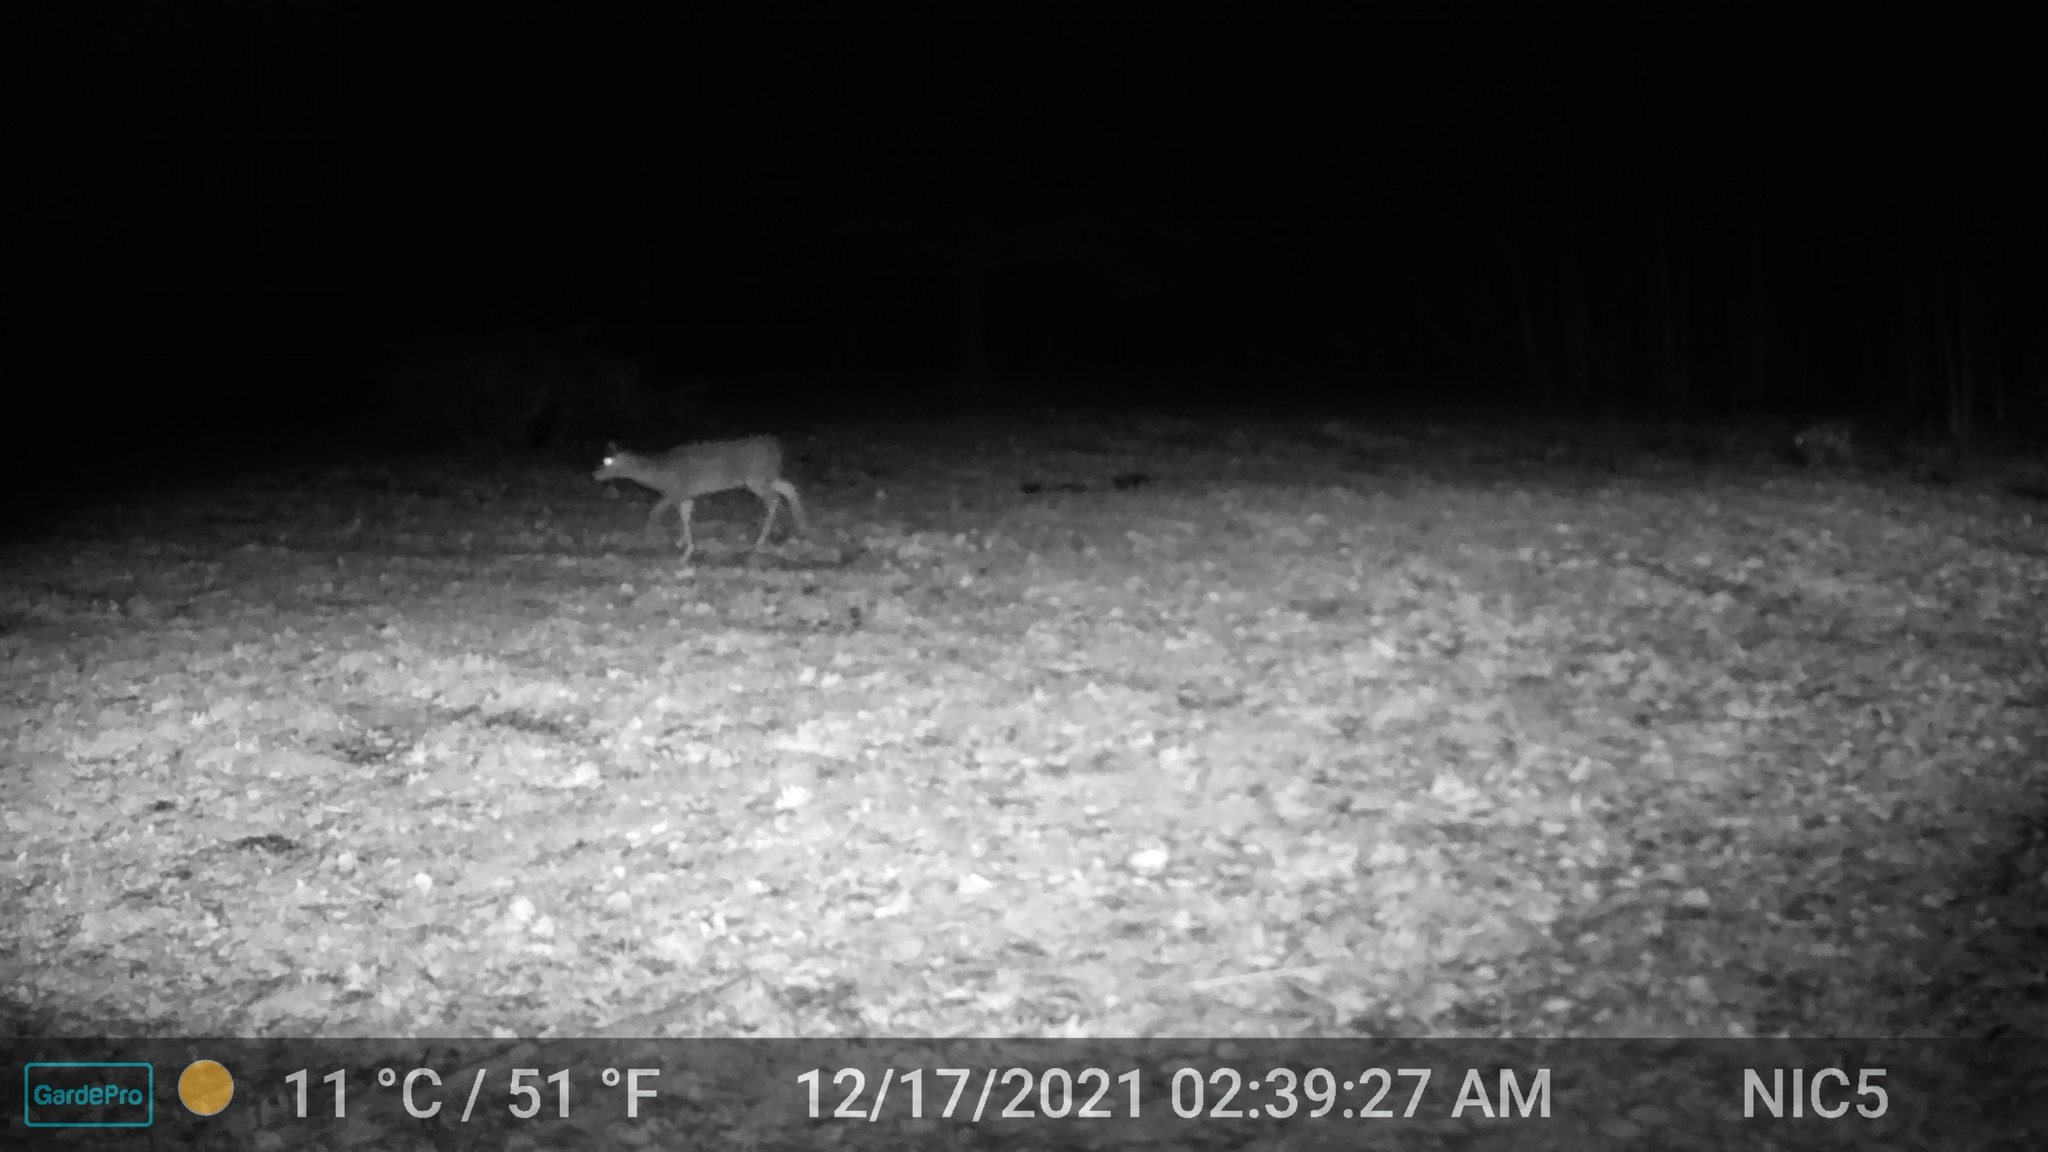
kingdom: Animalia
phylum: Chordata
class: Mammalia
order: Artiodactyla
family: Cervidae
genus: Odocoileus
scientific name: Odocoileus virginianus
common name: White-tailed deer
